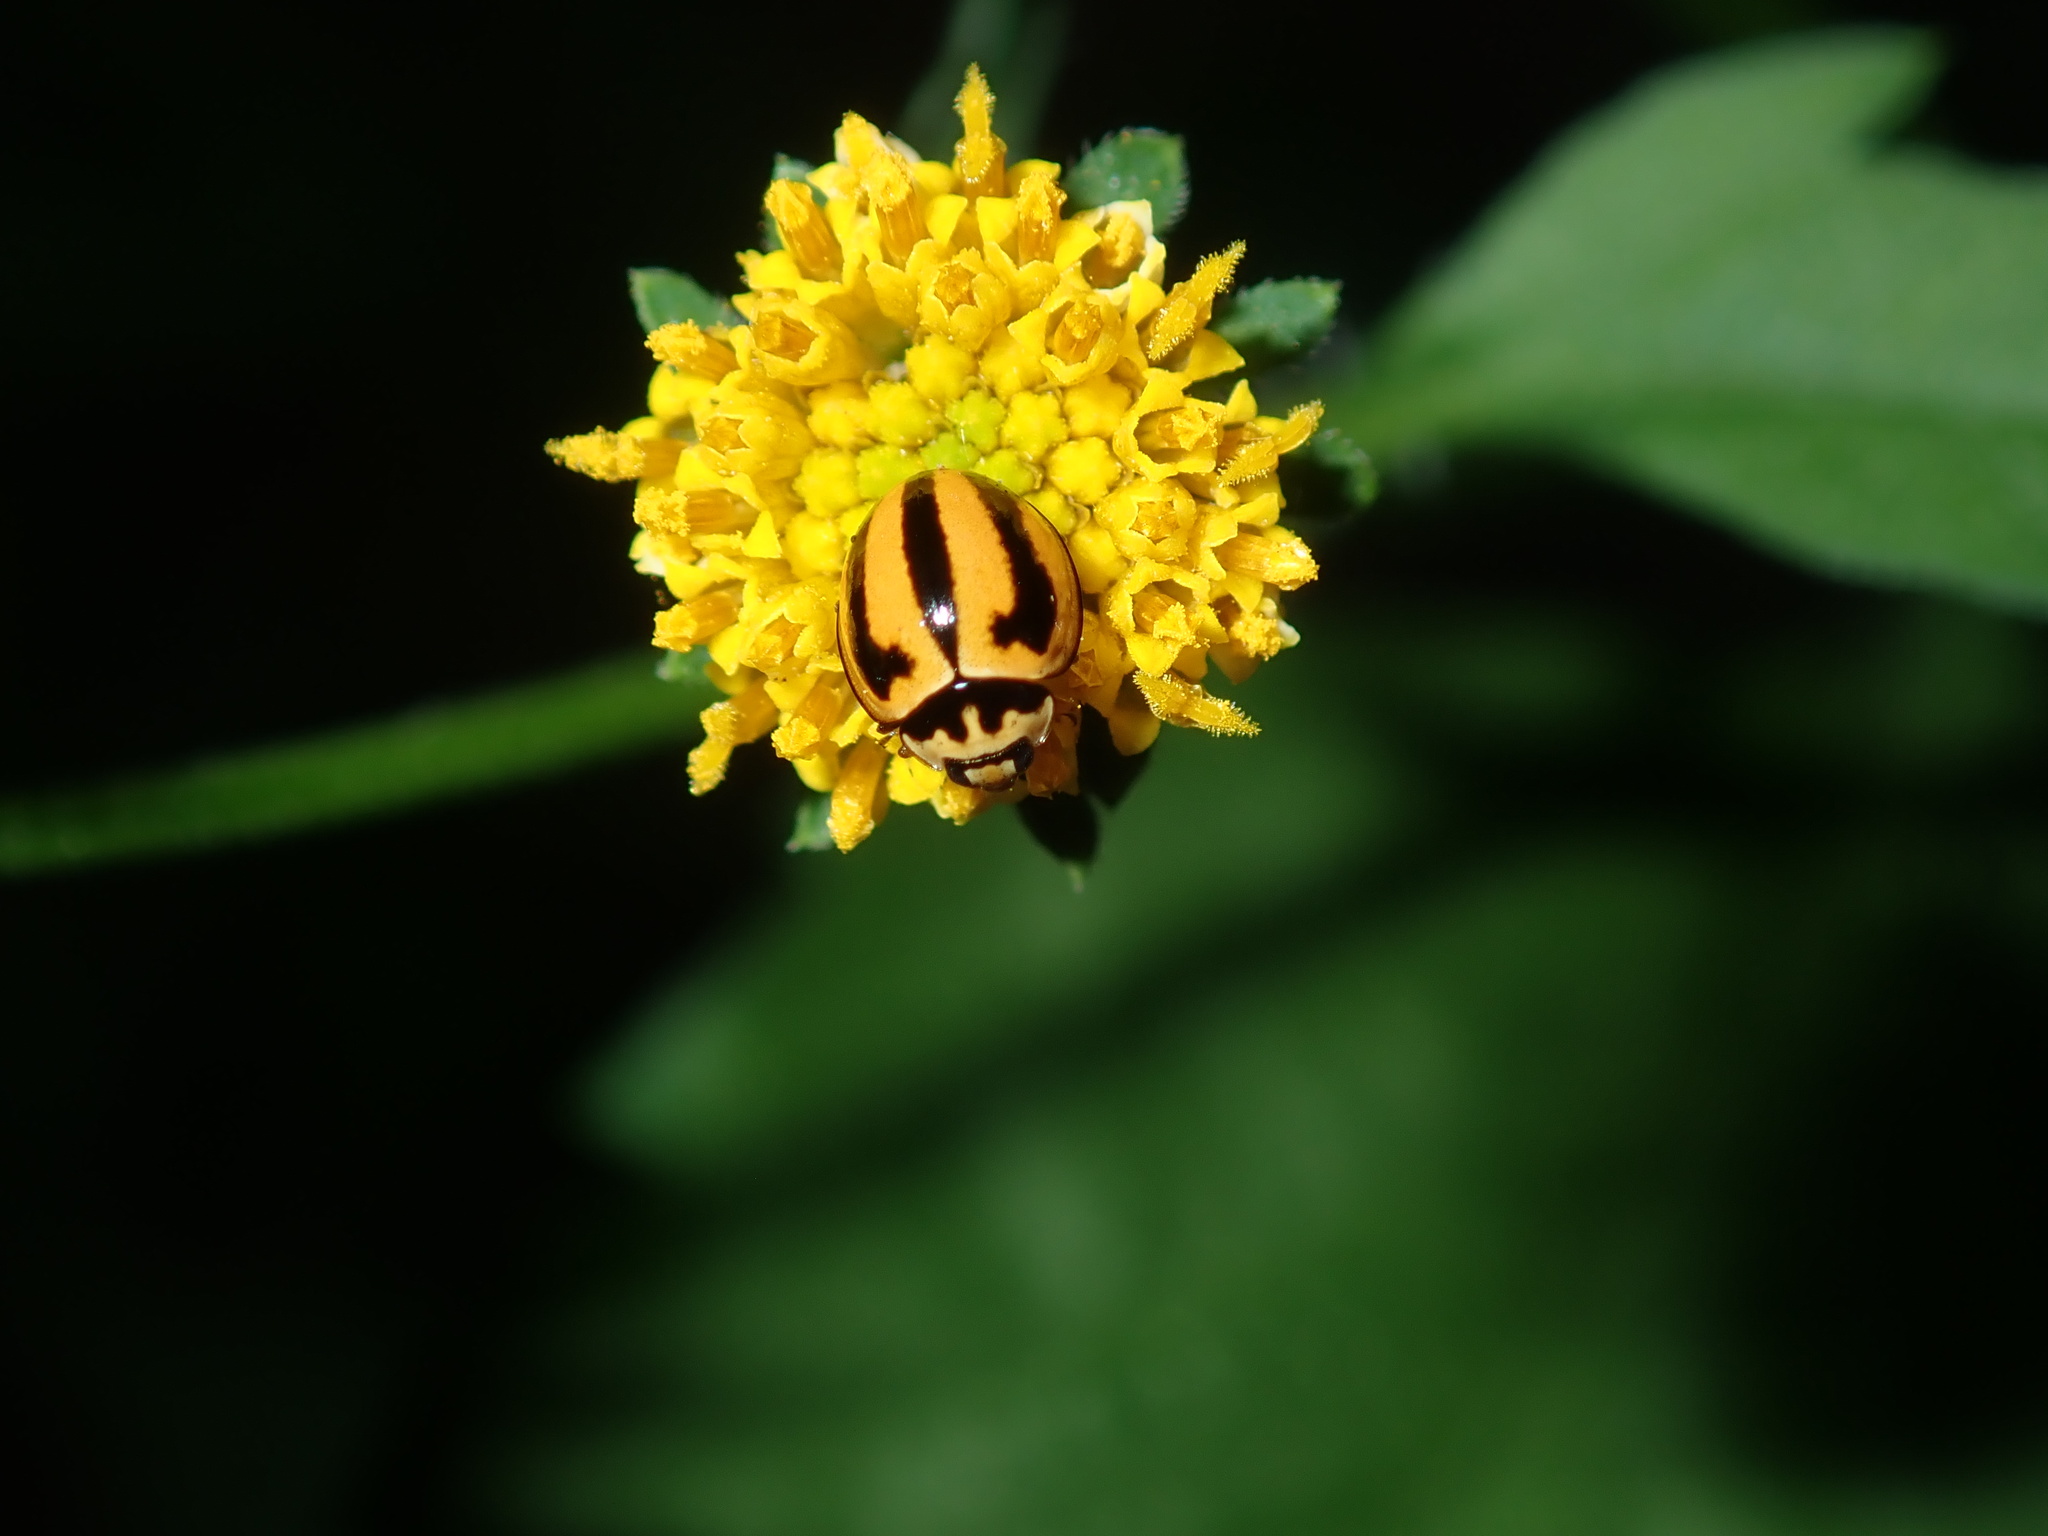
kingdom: Animalia
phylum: Arthropoda
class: Insecta
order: Coleoptera
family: Coccinellidae
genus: Micraspis
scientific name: Micraspis frenata
